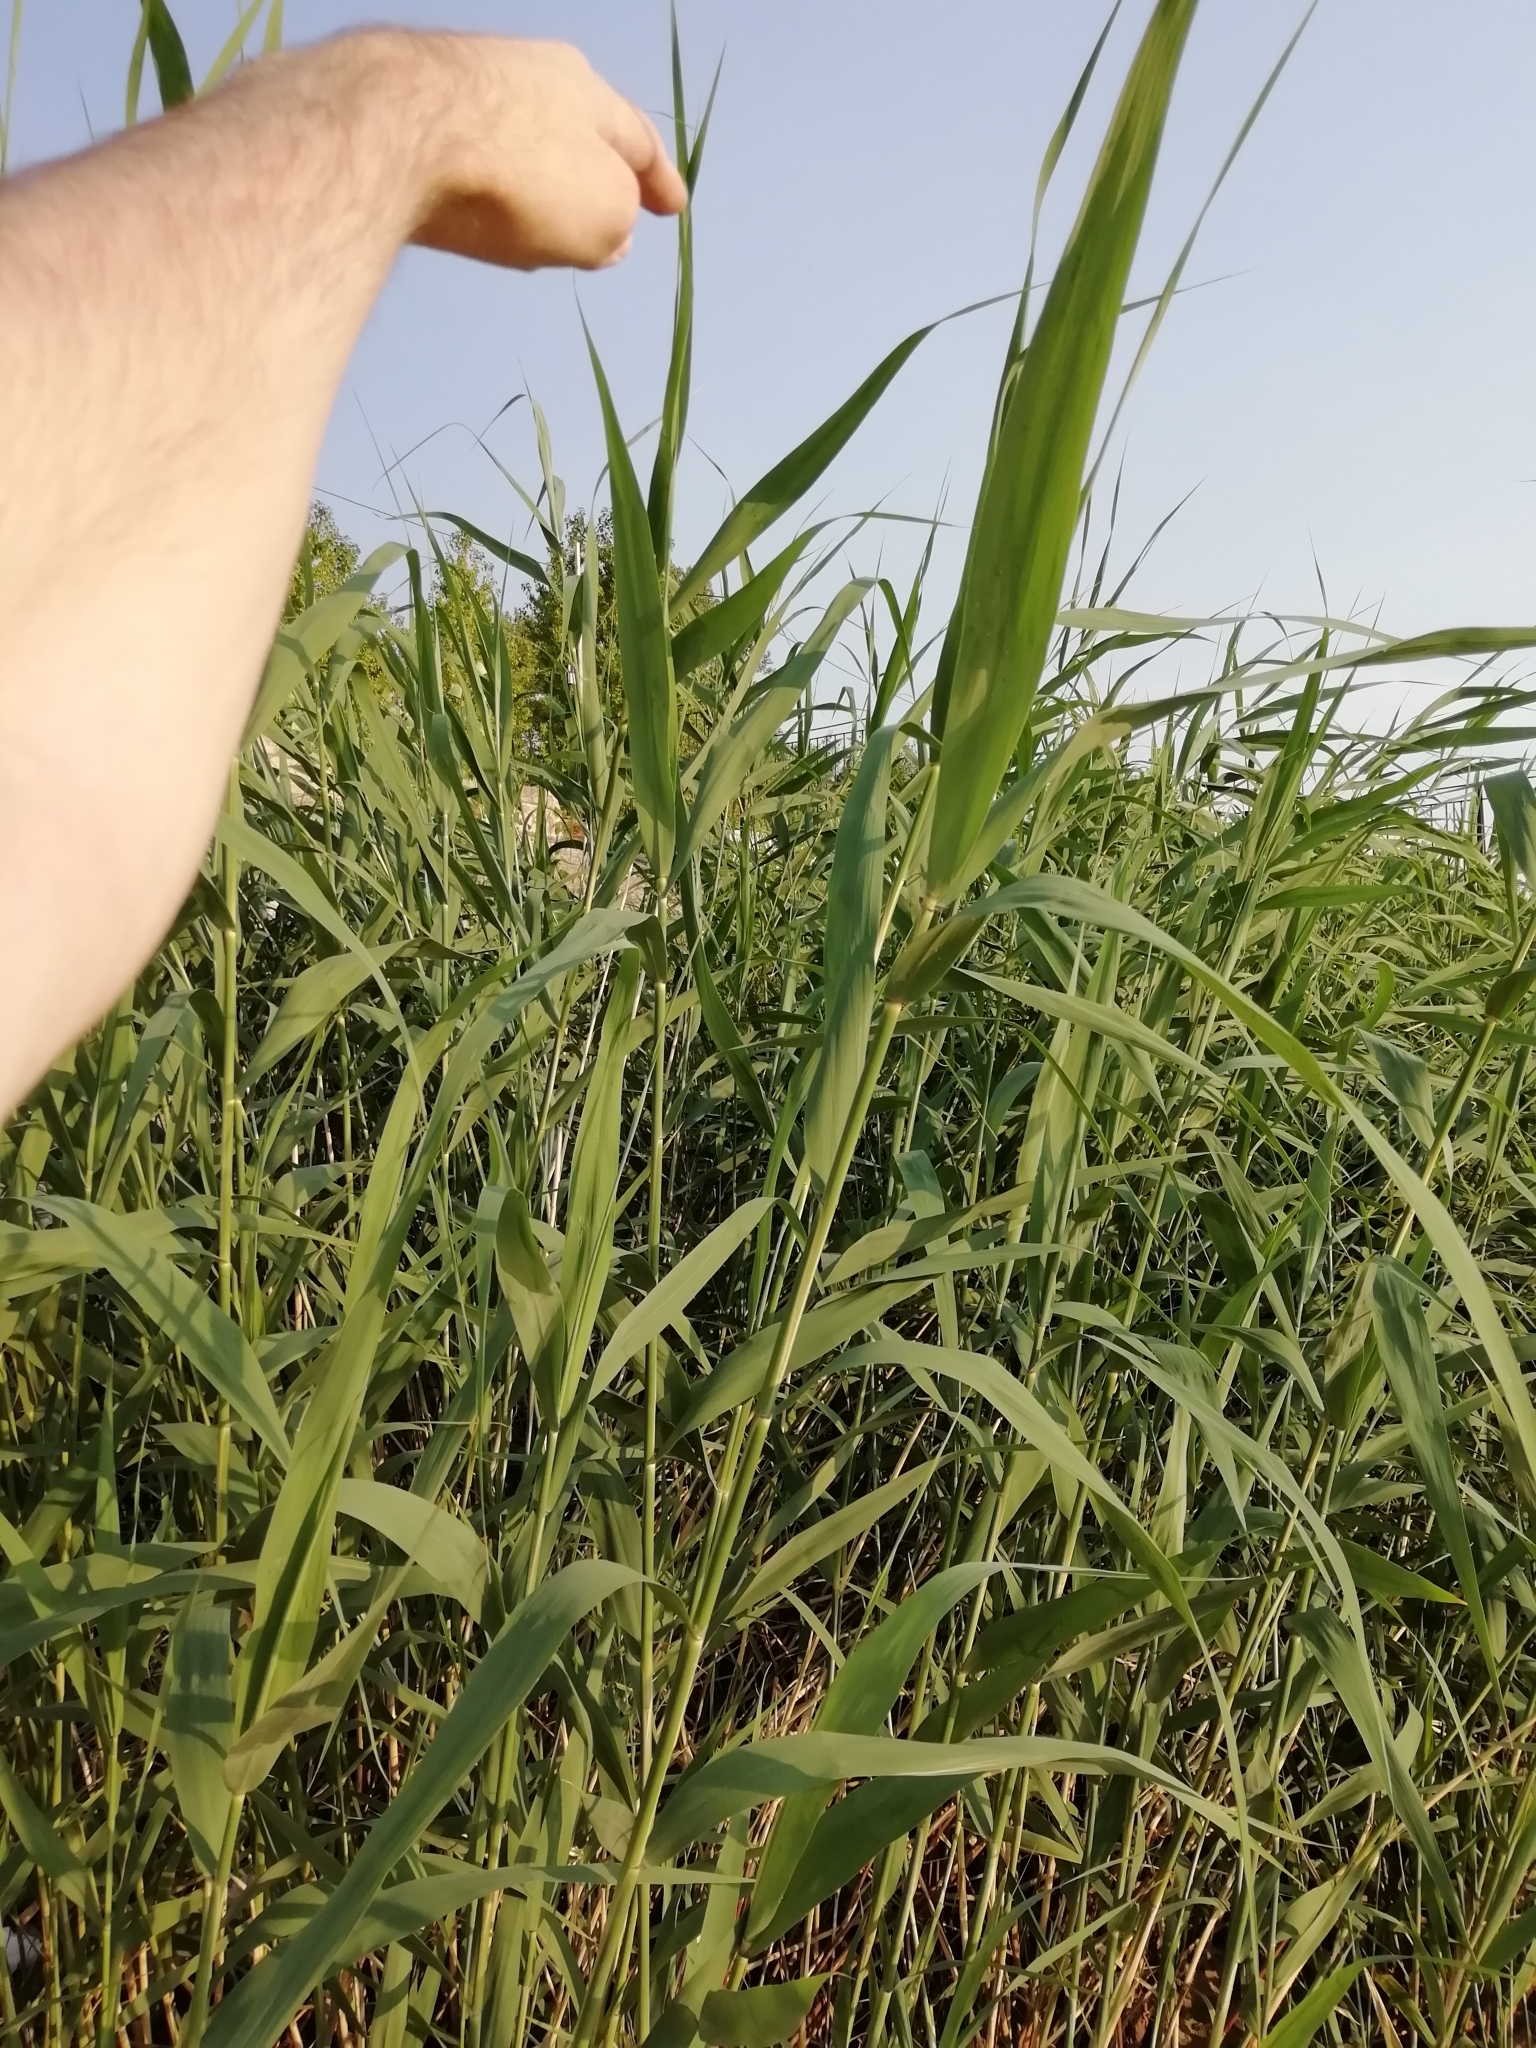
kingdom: Plantae
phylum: Tracheophyta
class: Liliopsida
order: Poales
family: Poaceae
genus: Phragmites
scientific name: Phragmites australis
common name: Common reed
